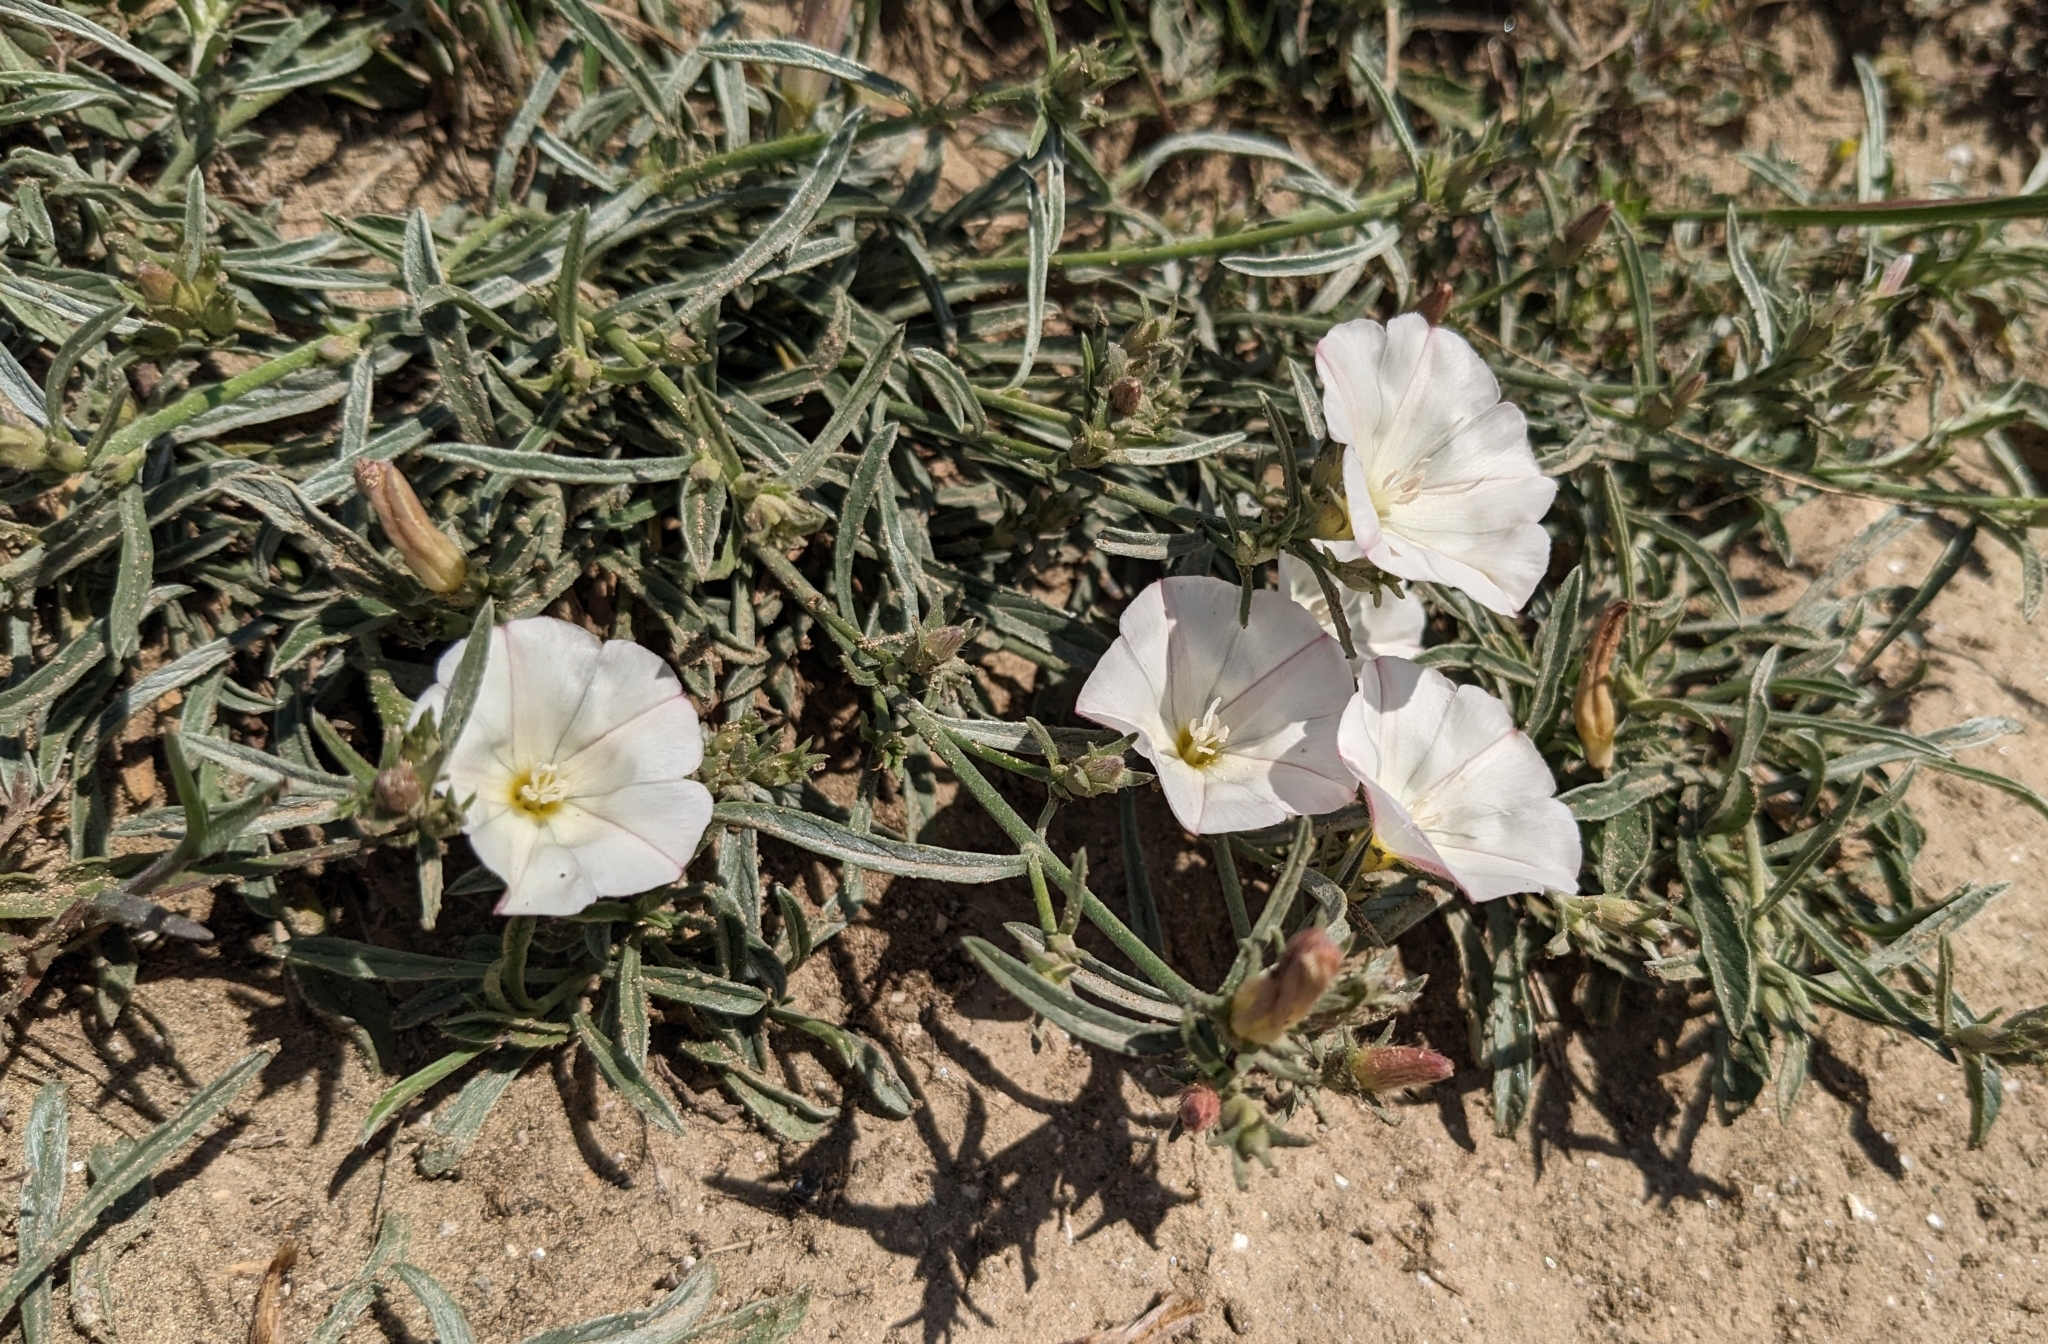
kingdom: Plantae
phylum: Tracheophyta
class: Magnoliopsida
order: Solanales
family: Convolvulaceae
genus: Convolvulus
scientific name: Convolvulus cyprius
